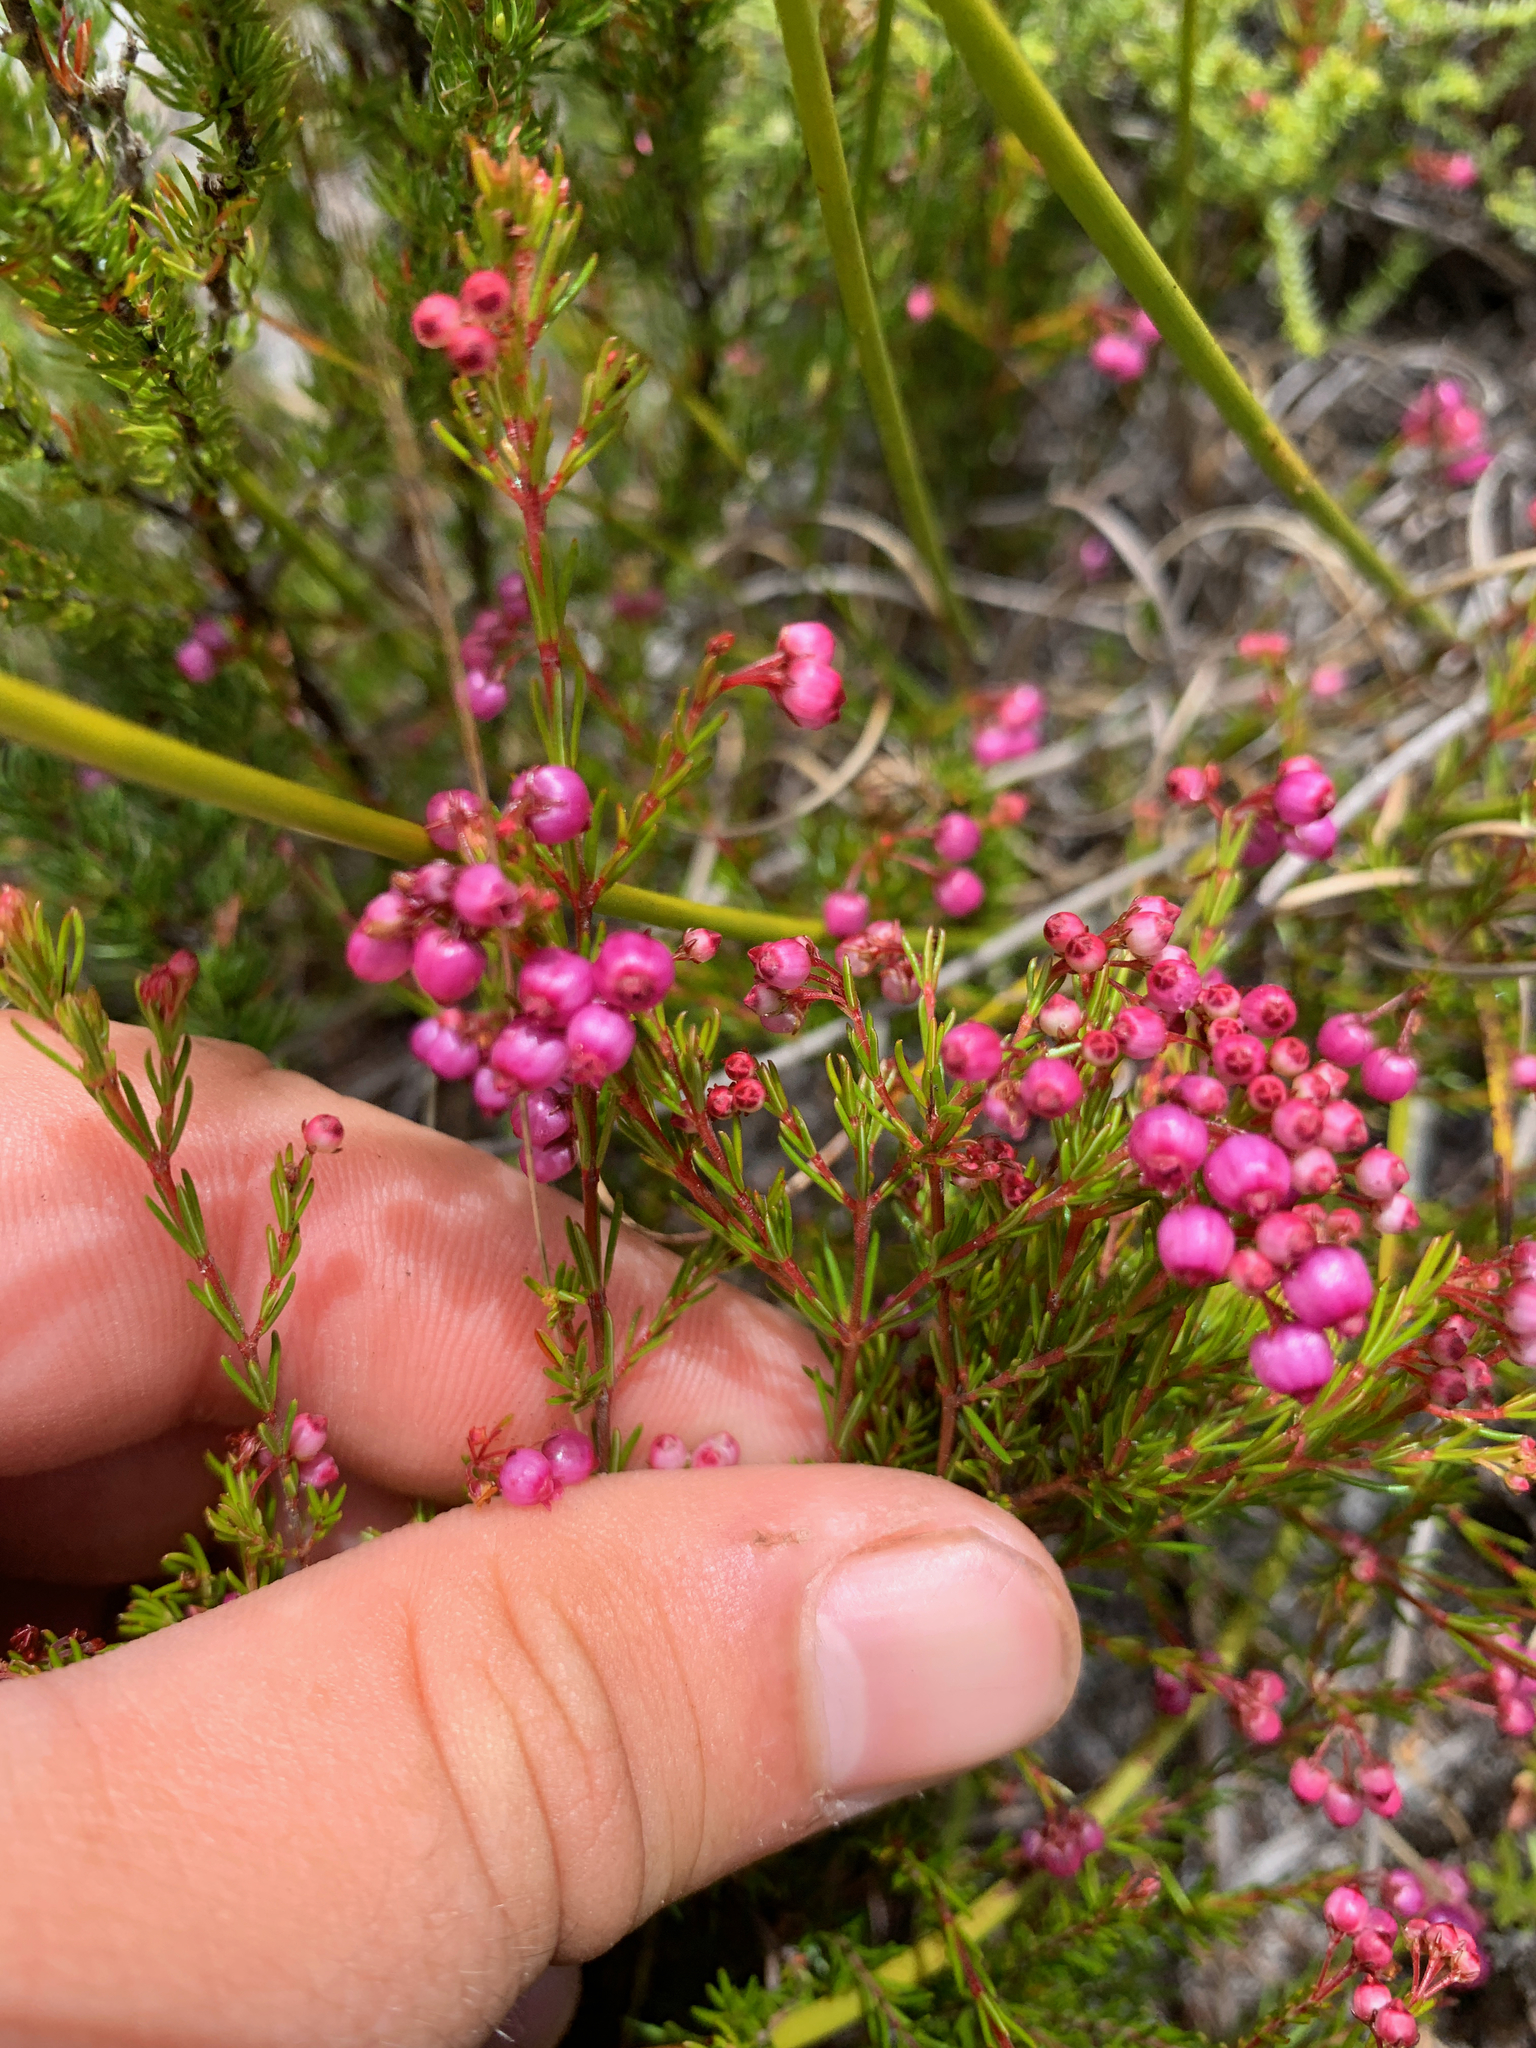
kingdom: Plantae
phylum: Tracheophyta
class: Magnoliopsida
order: Ericales
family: Ericaceae
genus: Erica
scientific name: Erica multumbellifera
